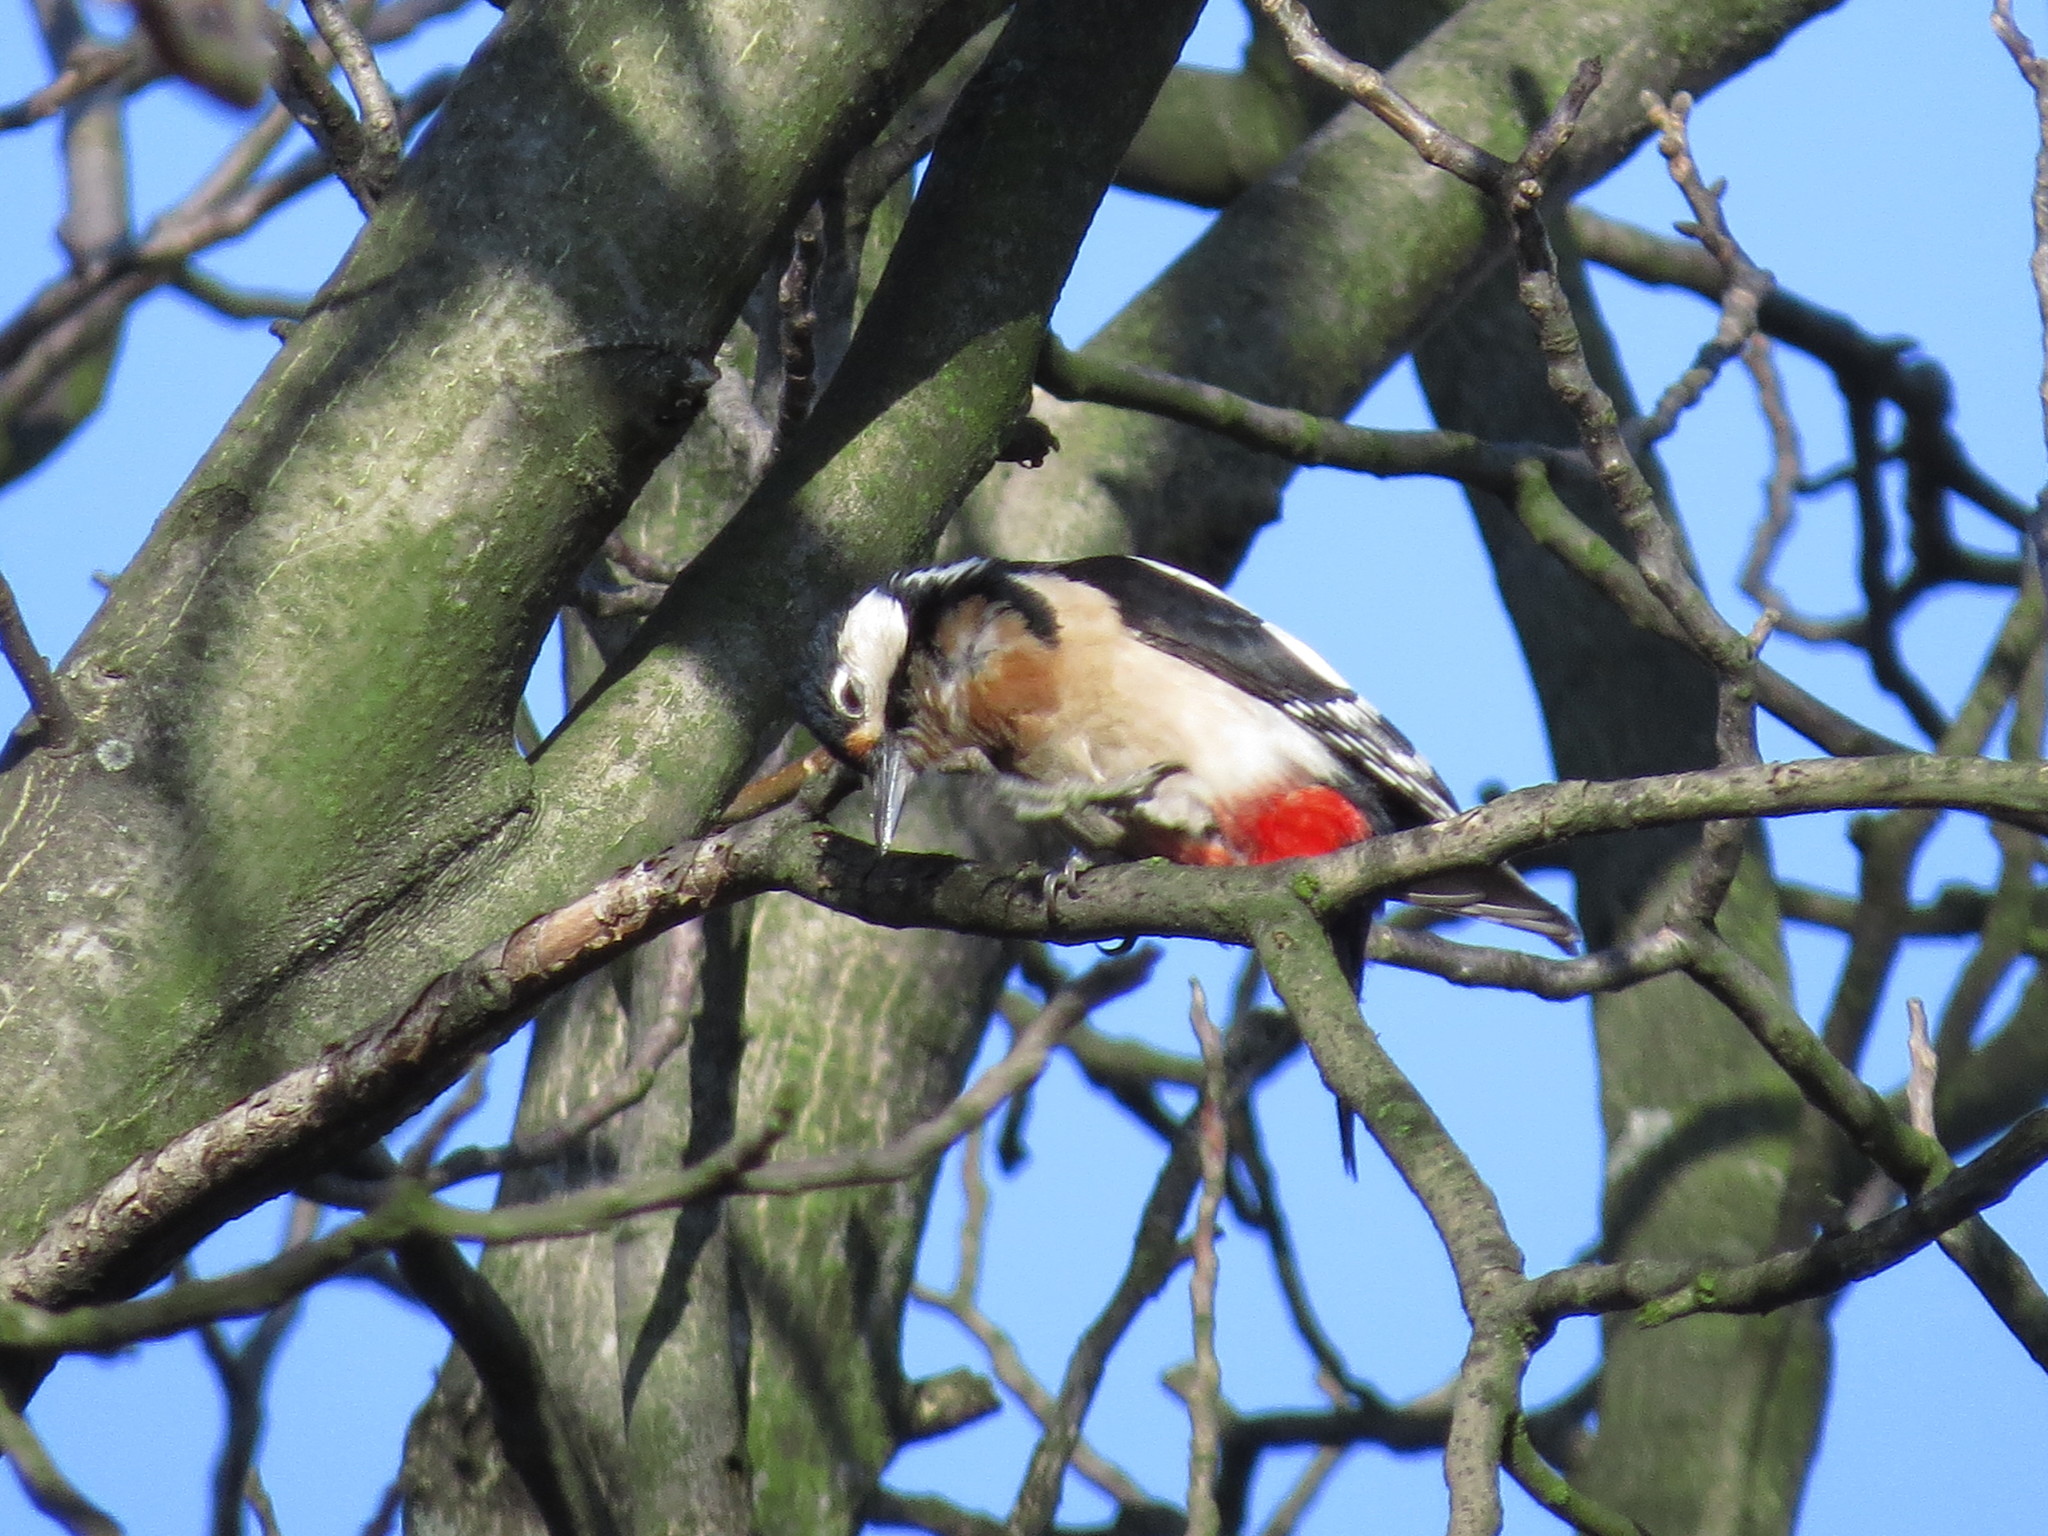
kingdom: Animalia
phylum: Chordata
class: Aves
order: Piciformes
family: Picidae
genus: Dendrocopos
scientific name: Dendrocopos major
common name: Great spotted woodpecker
